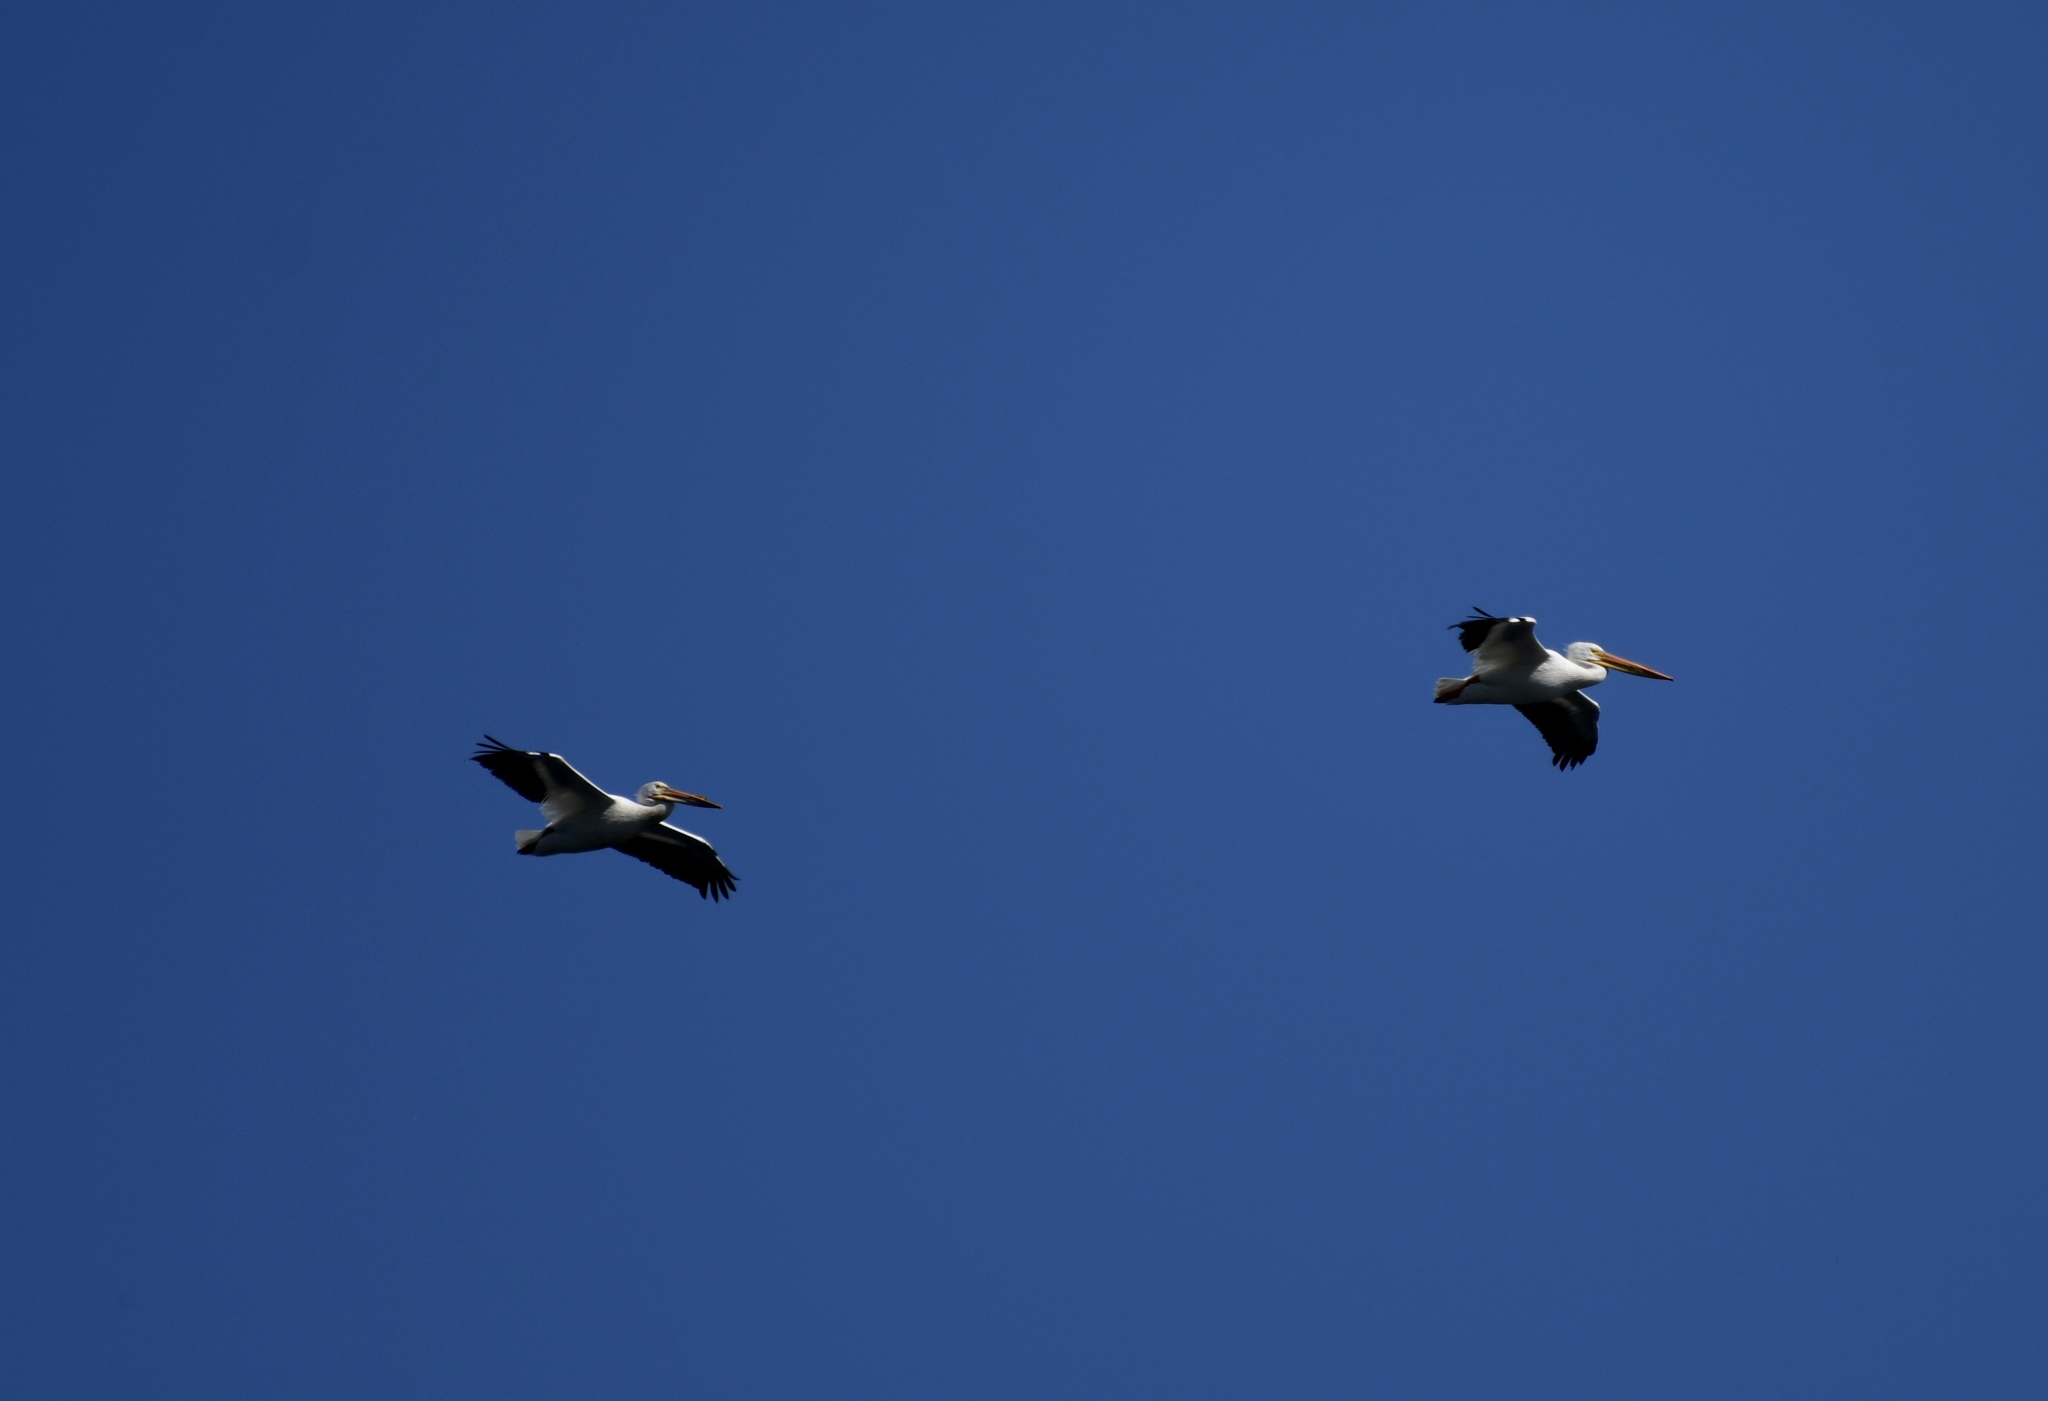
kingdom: Animalia
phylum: Chordata
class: Aves
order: Pelecaniformes
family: Pelecanidae
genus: Pelecanus
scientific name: Pelecanus erythrorhynchos
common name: American white pelican
